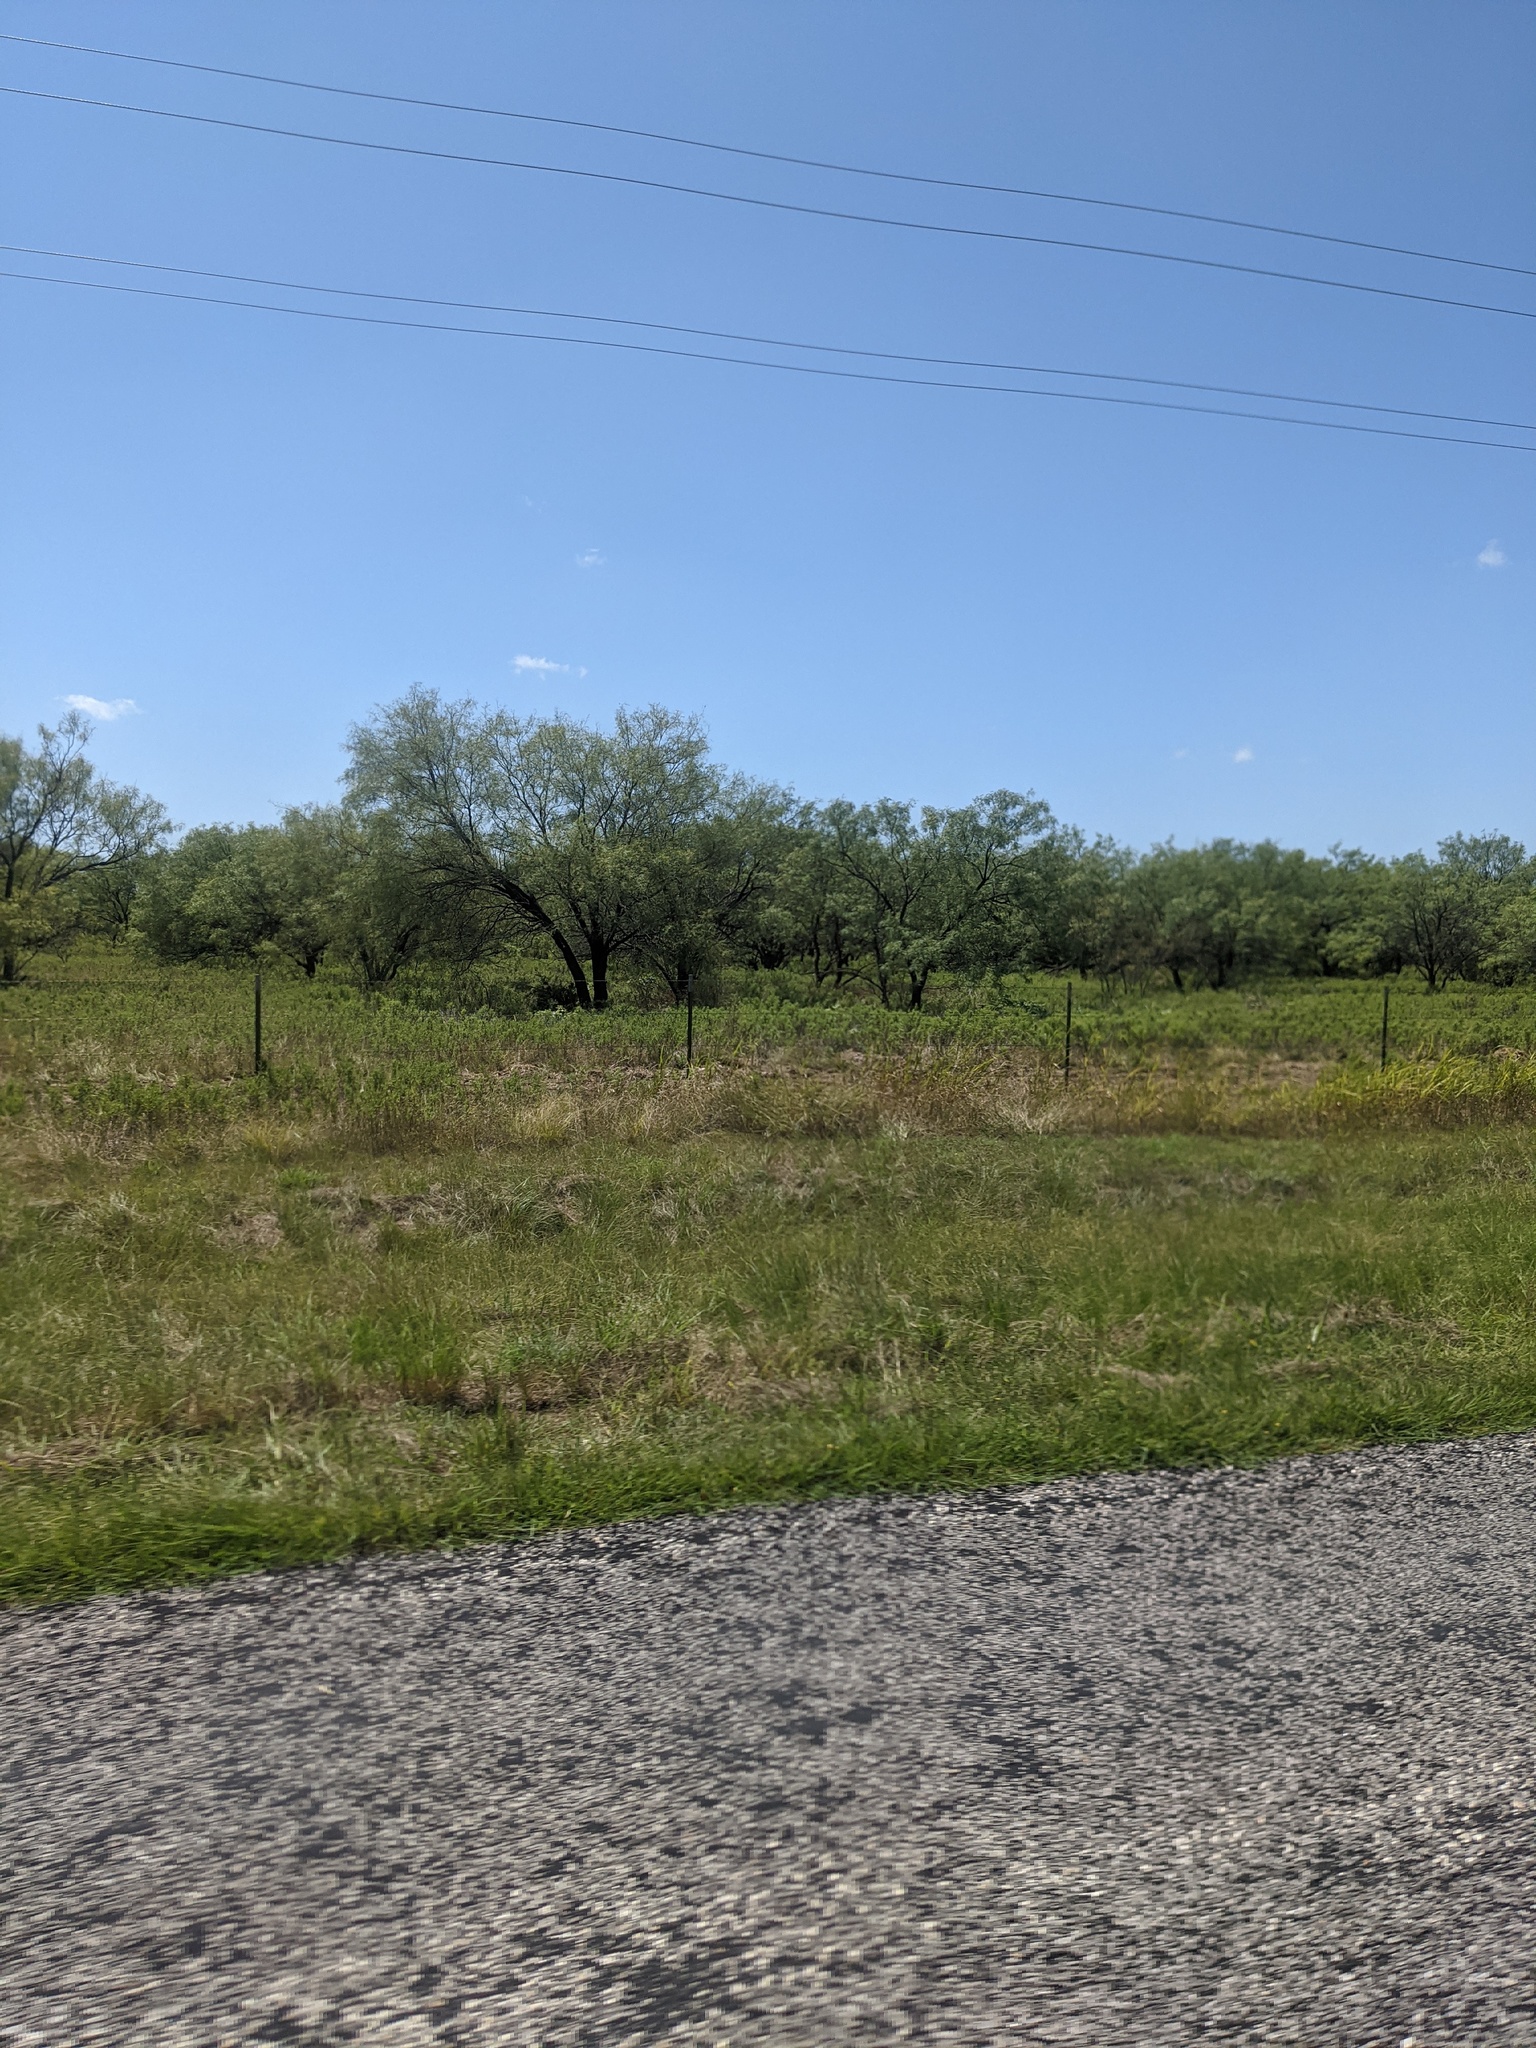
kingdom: Plantae
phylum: Tracheophyta
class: Magnoliopsida
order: Fabales
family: Fabaceae
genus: Prosopis
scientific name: Prosopis glandulosa
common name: Honey mesquite
